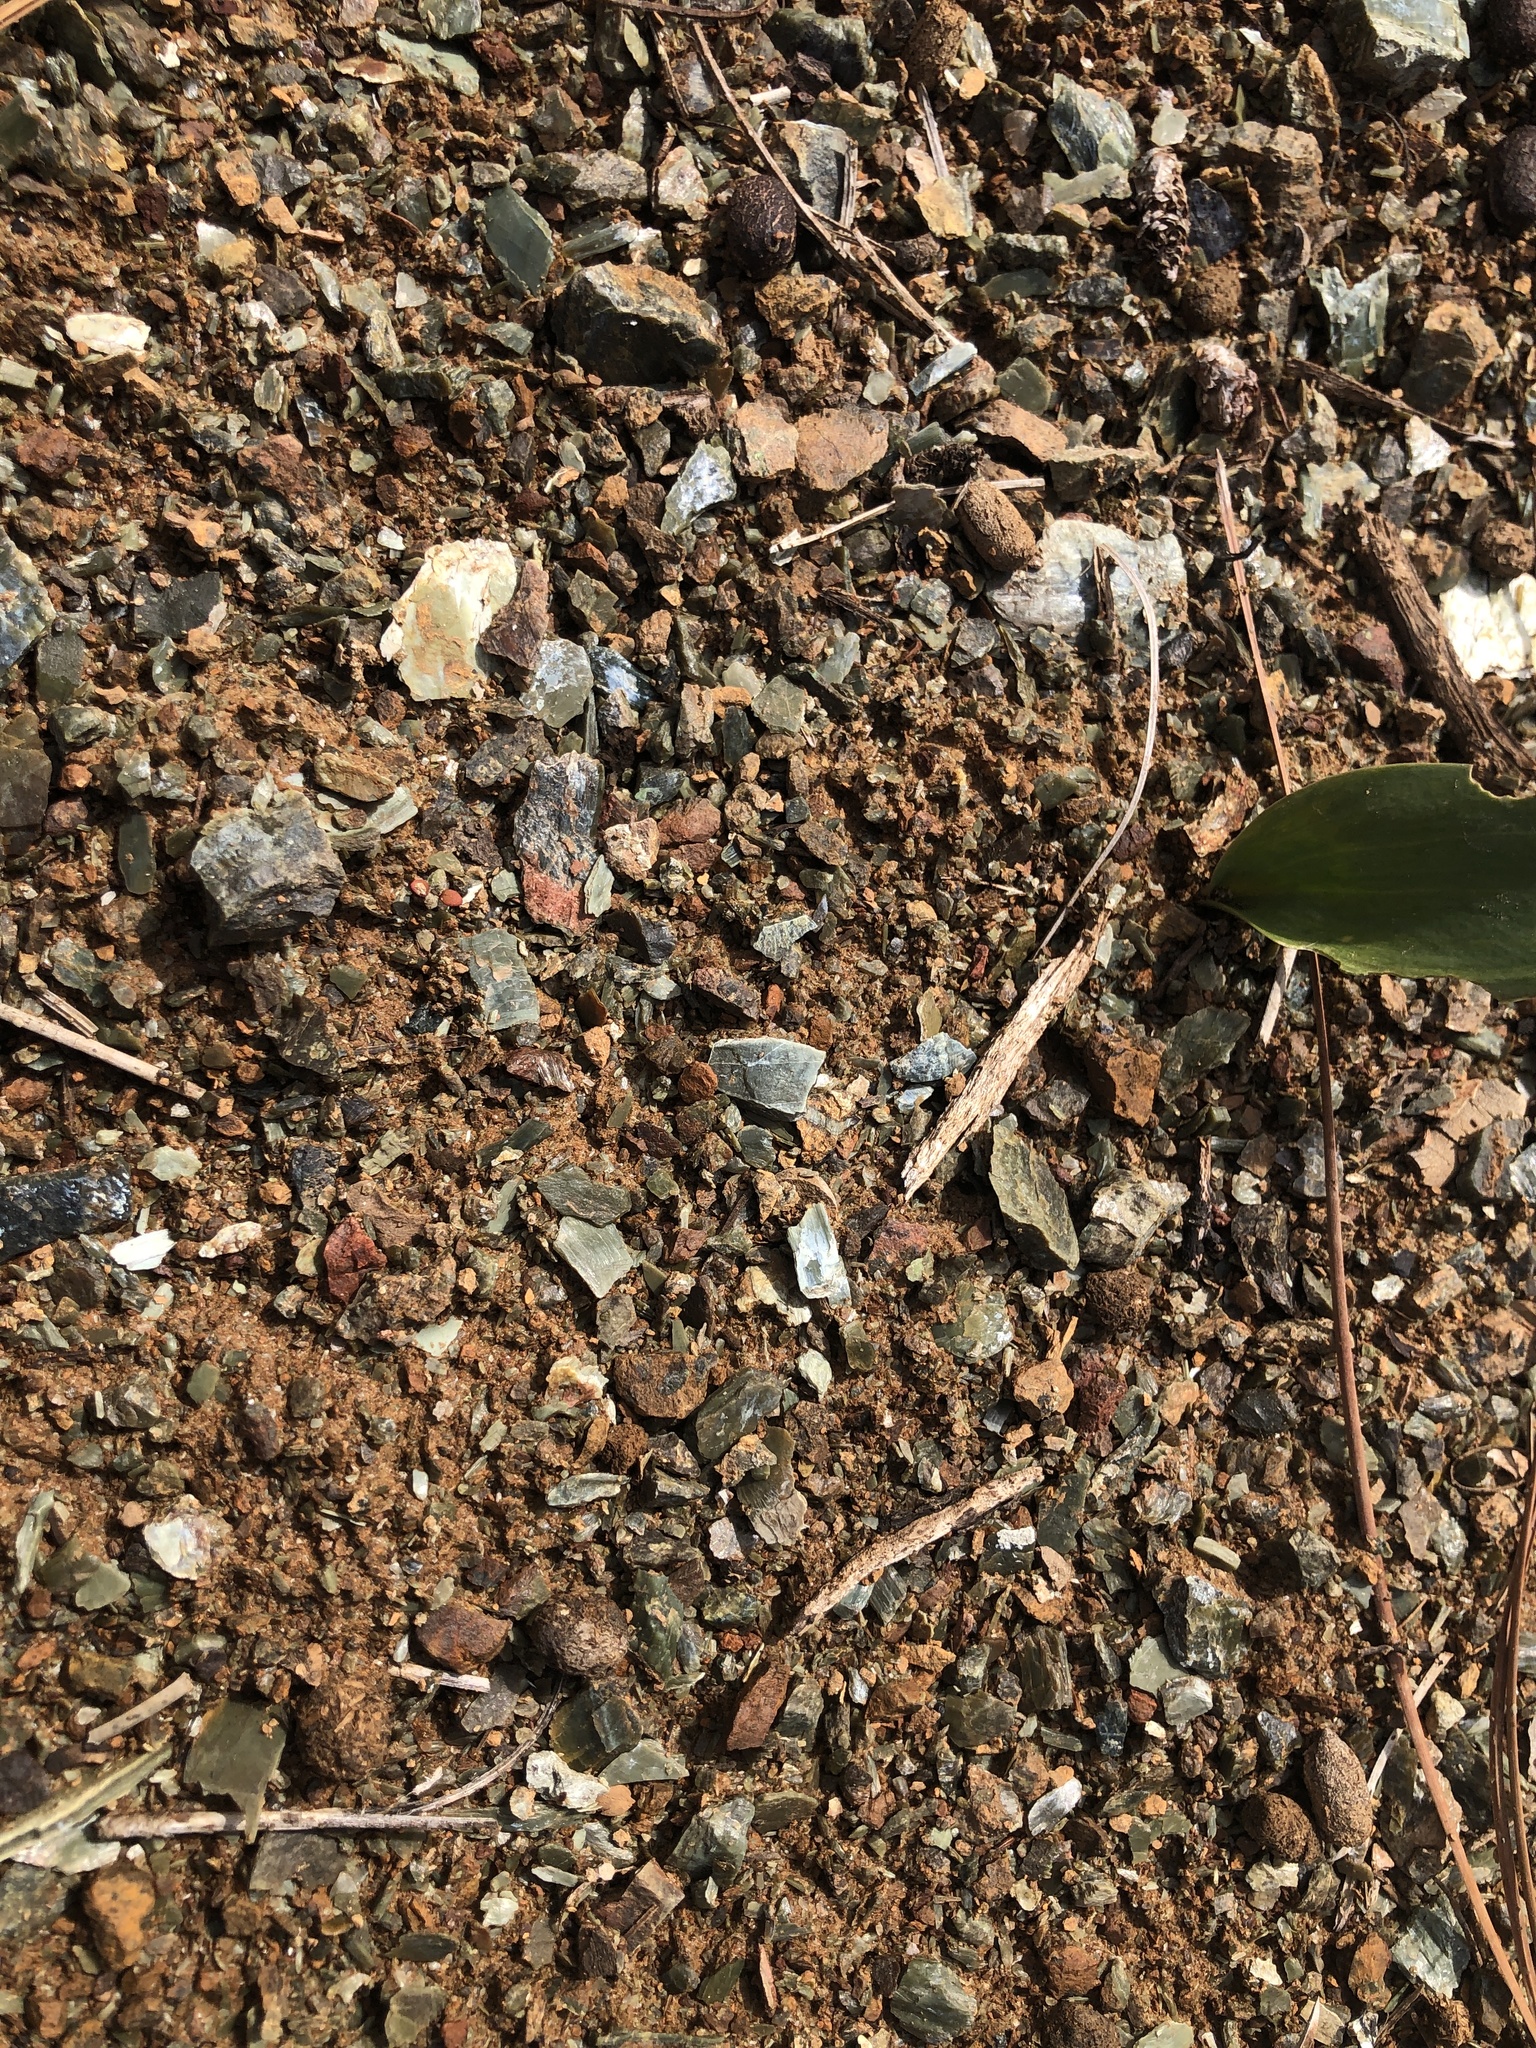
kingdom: Plantae
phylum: Tracheophyta
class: Liliopsida
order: Liliales
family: Liliaceae
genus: Fritillaria
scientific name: Fritillaria viridea
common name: San benito fritillary
